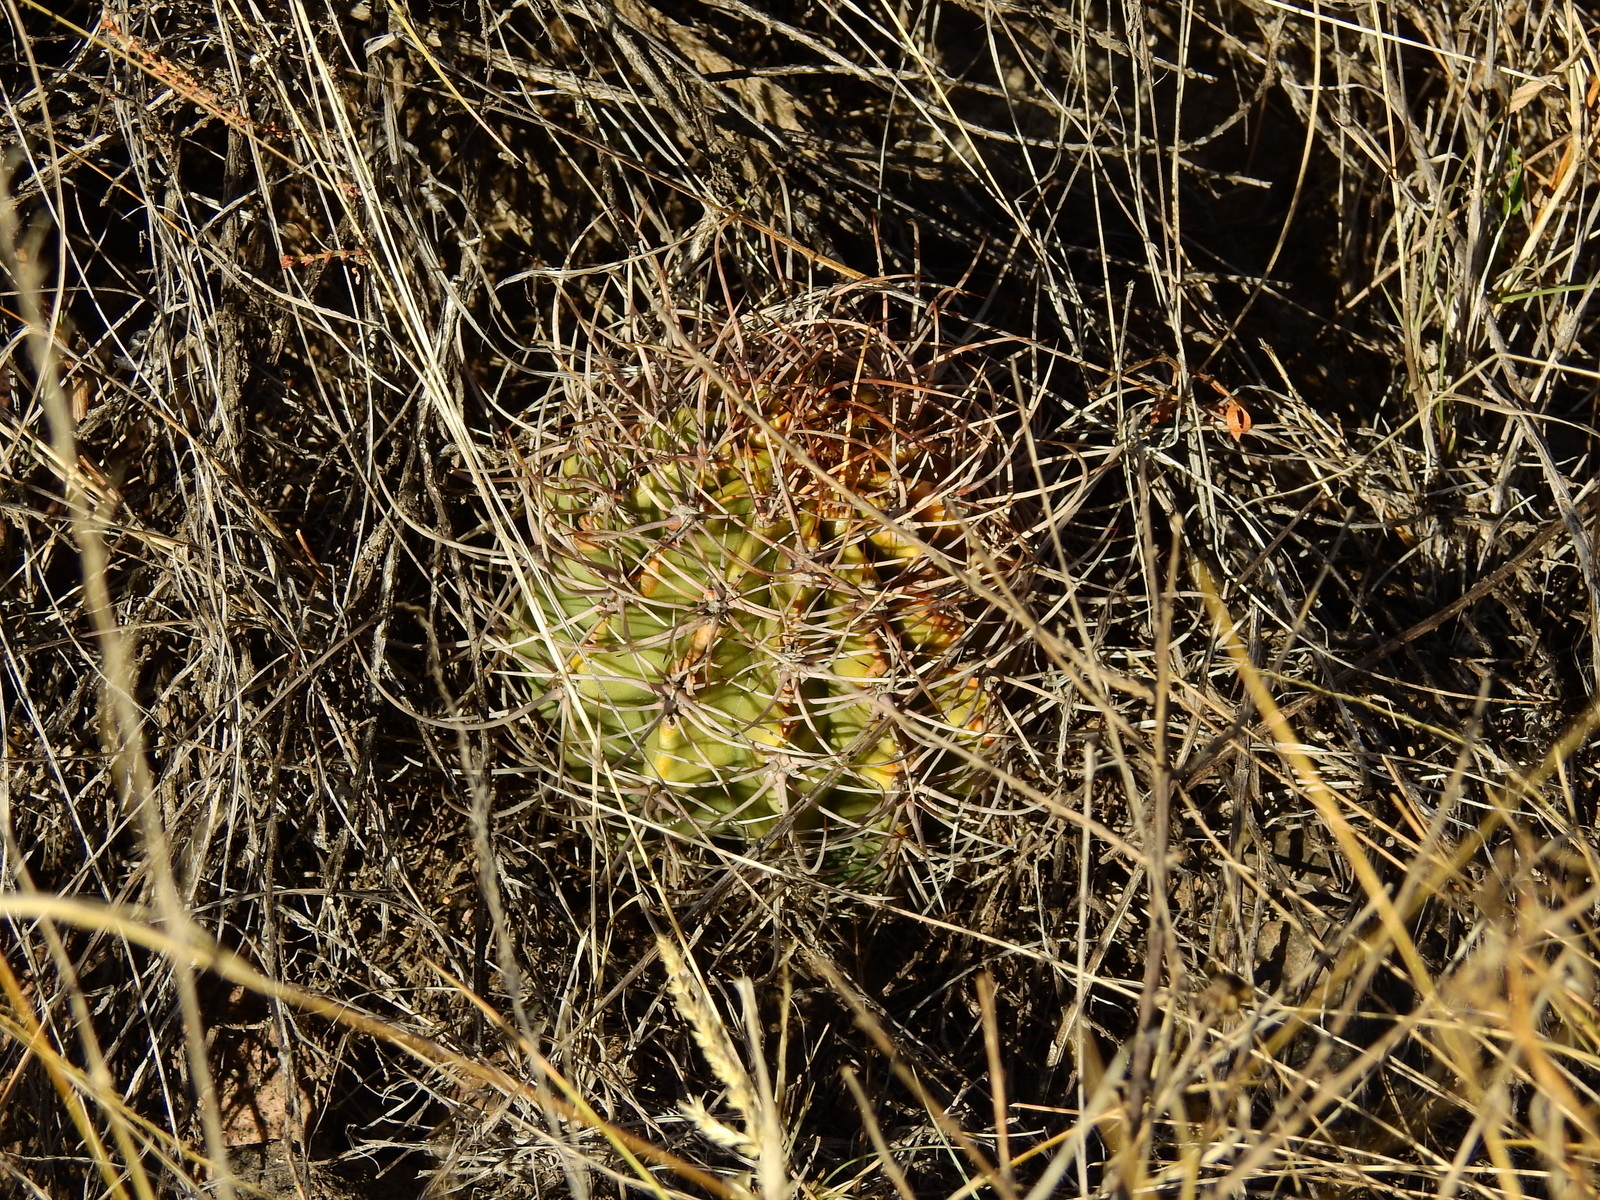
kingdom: Plantae
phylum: Tracheophyta
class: Magnoliopsida
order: Caryophyllales
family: Cactaceae
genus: Acanthocalycium
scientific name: Acanthocalycium leucanthum
